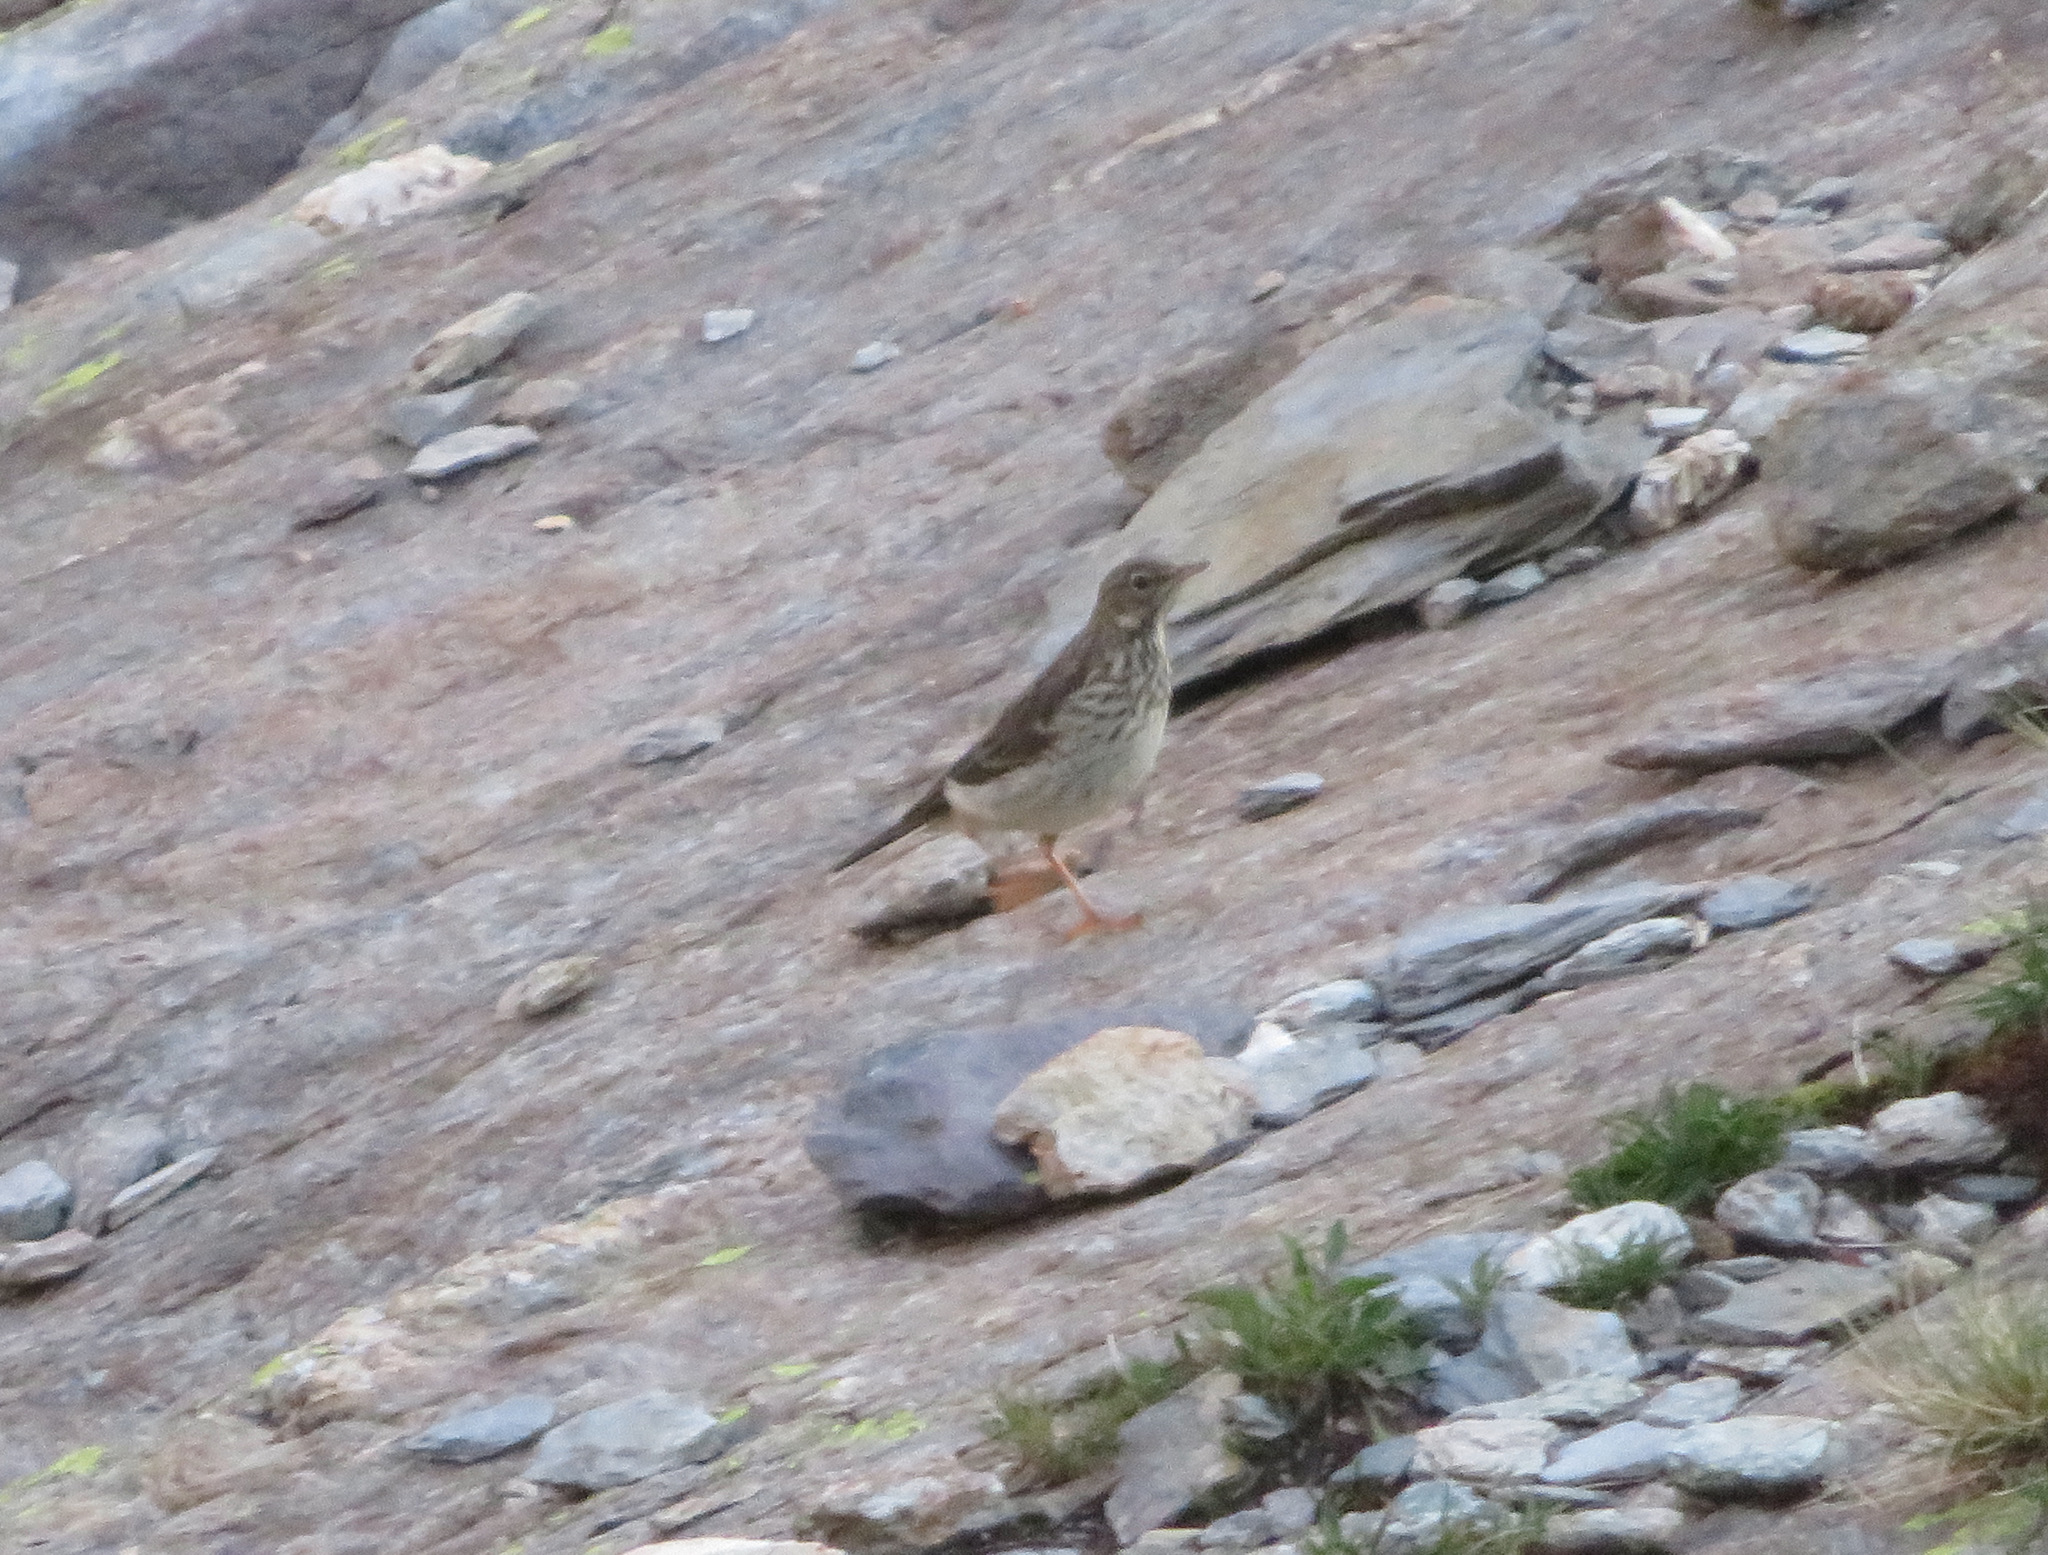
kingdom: Animalia
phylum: Chordata
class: Aves
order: Passeriformes
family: Motacillidae
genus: Anthus
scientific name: Anthus spinoletta
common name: Water pipit
